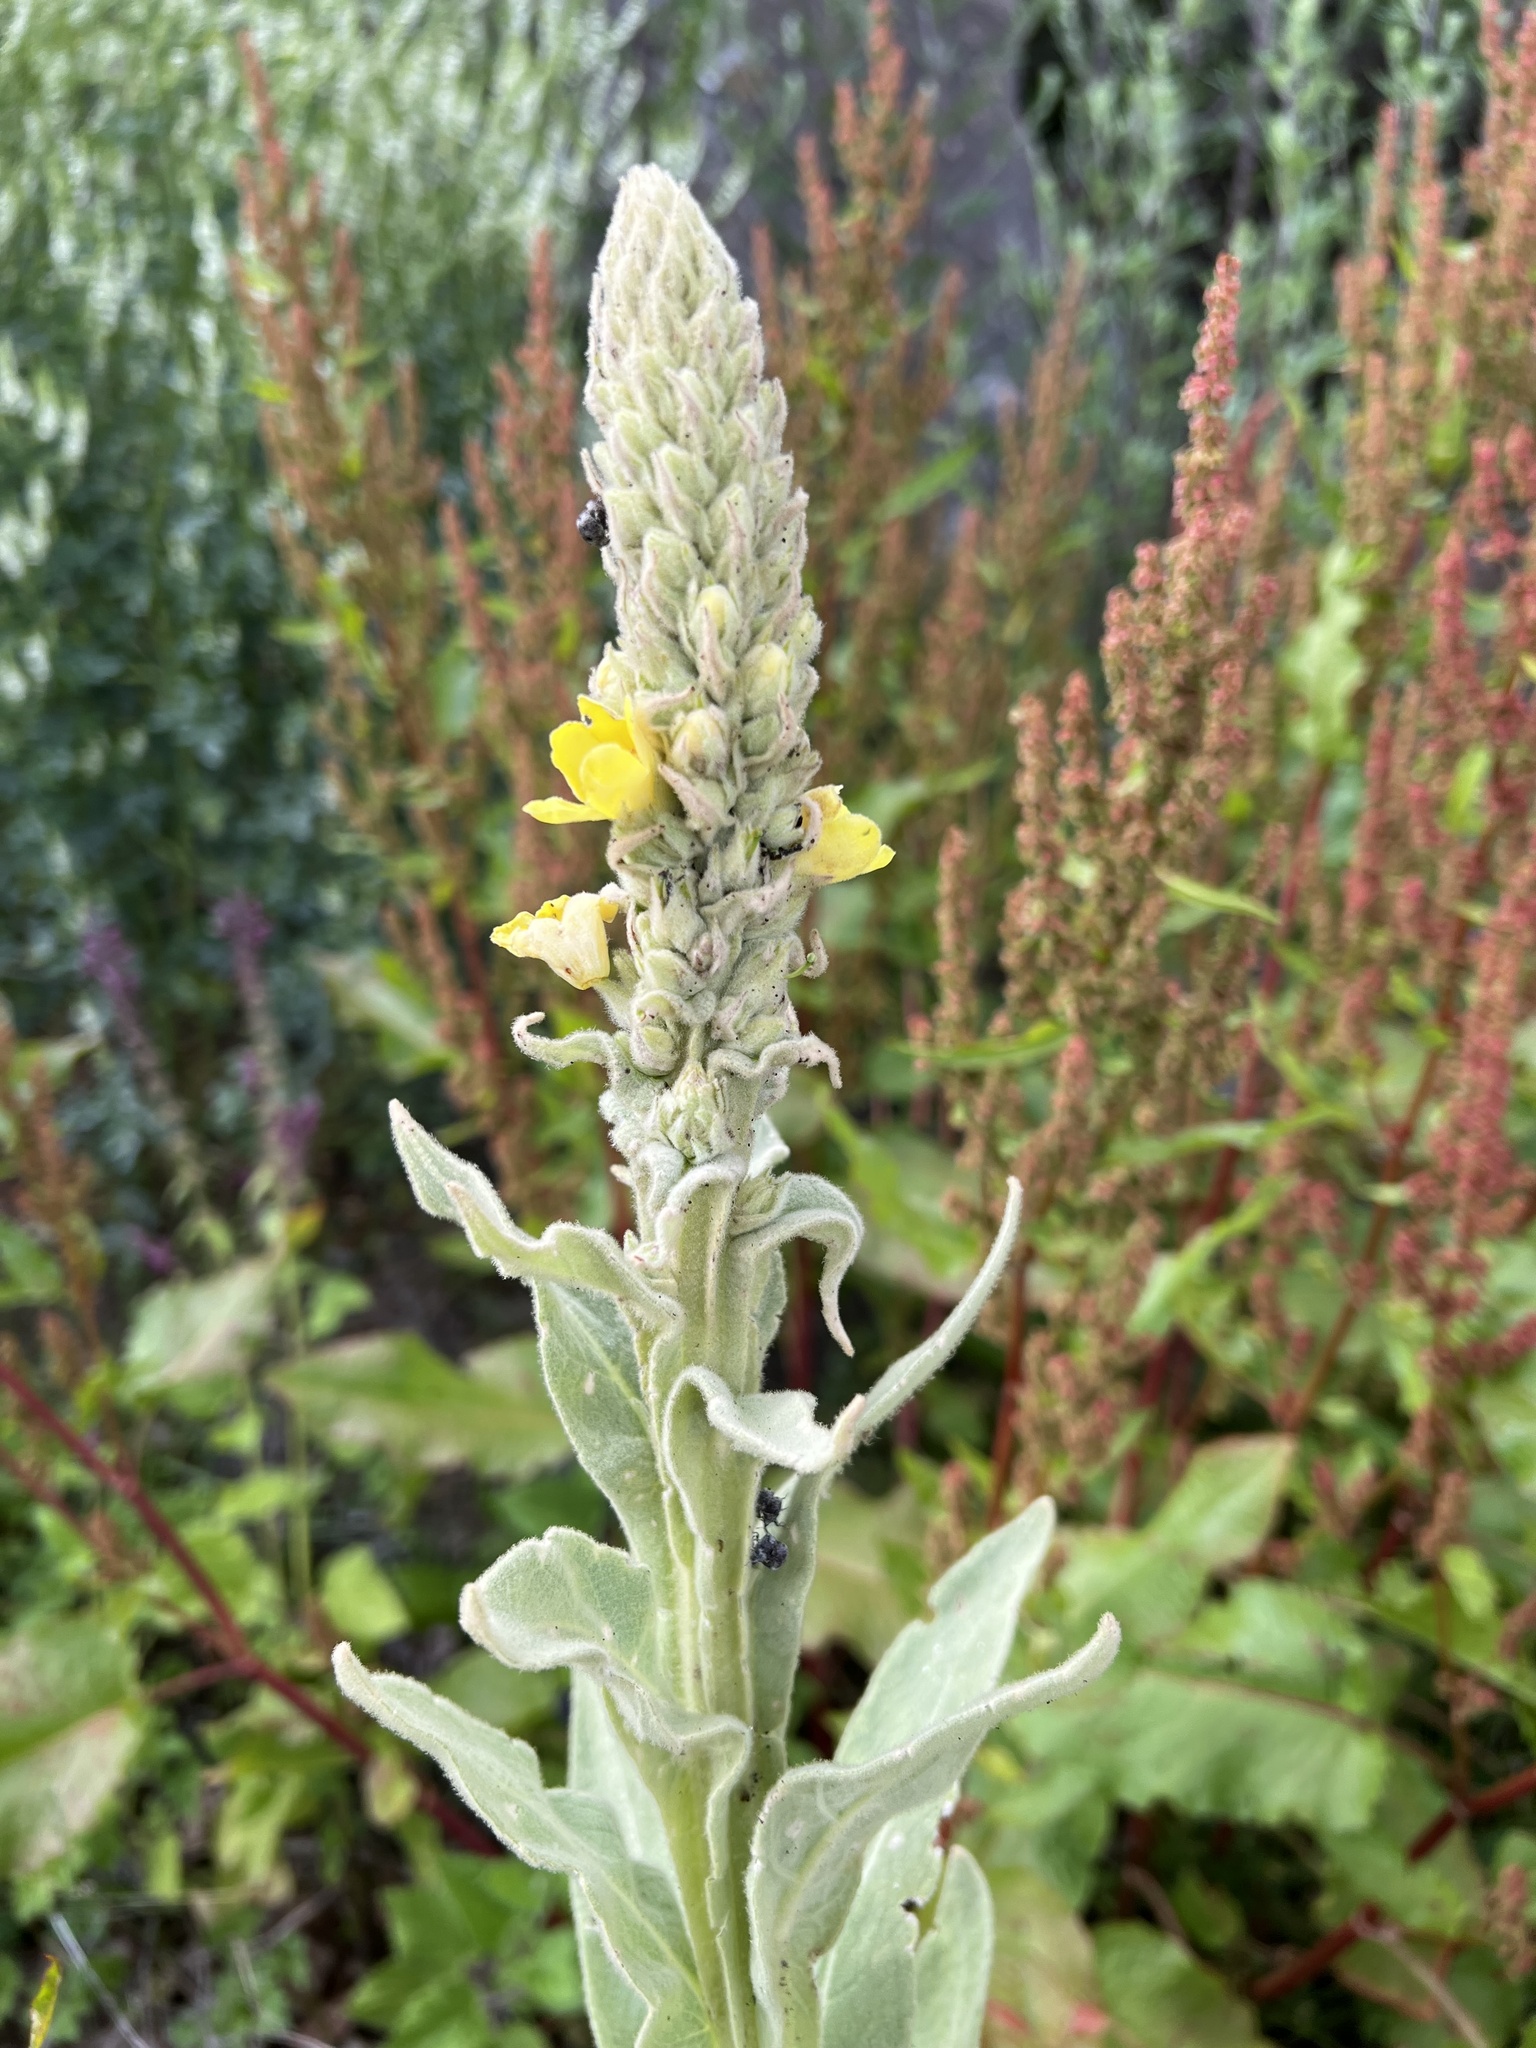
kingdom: Plantae
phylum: Tracheophyta
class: Magnoliopsida
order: Lamiales
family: Scrophulariaceae
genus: Verbascum
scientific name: Verbascum thapsus
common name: Common mullein
